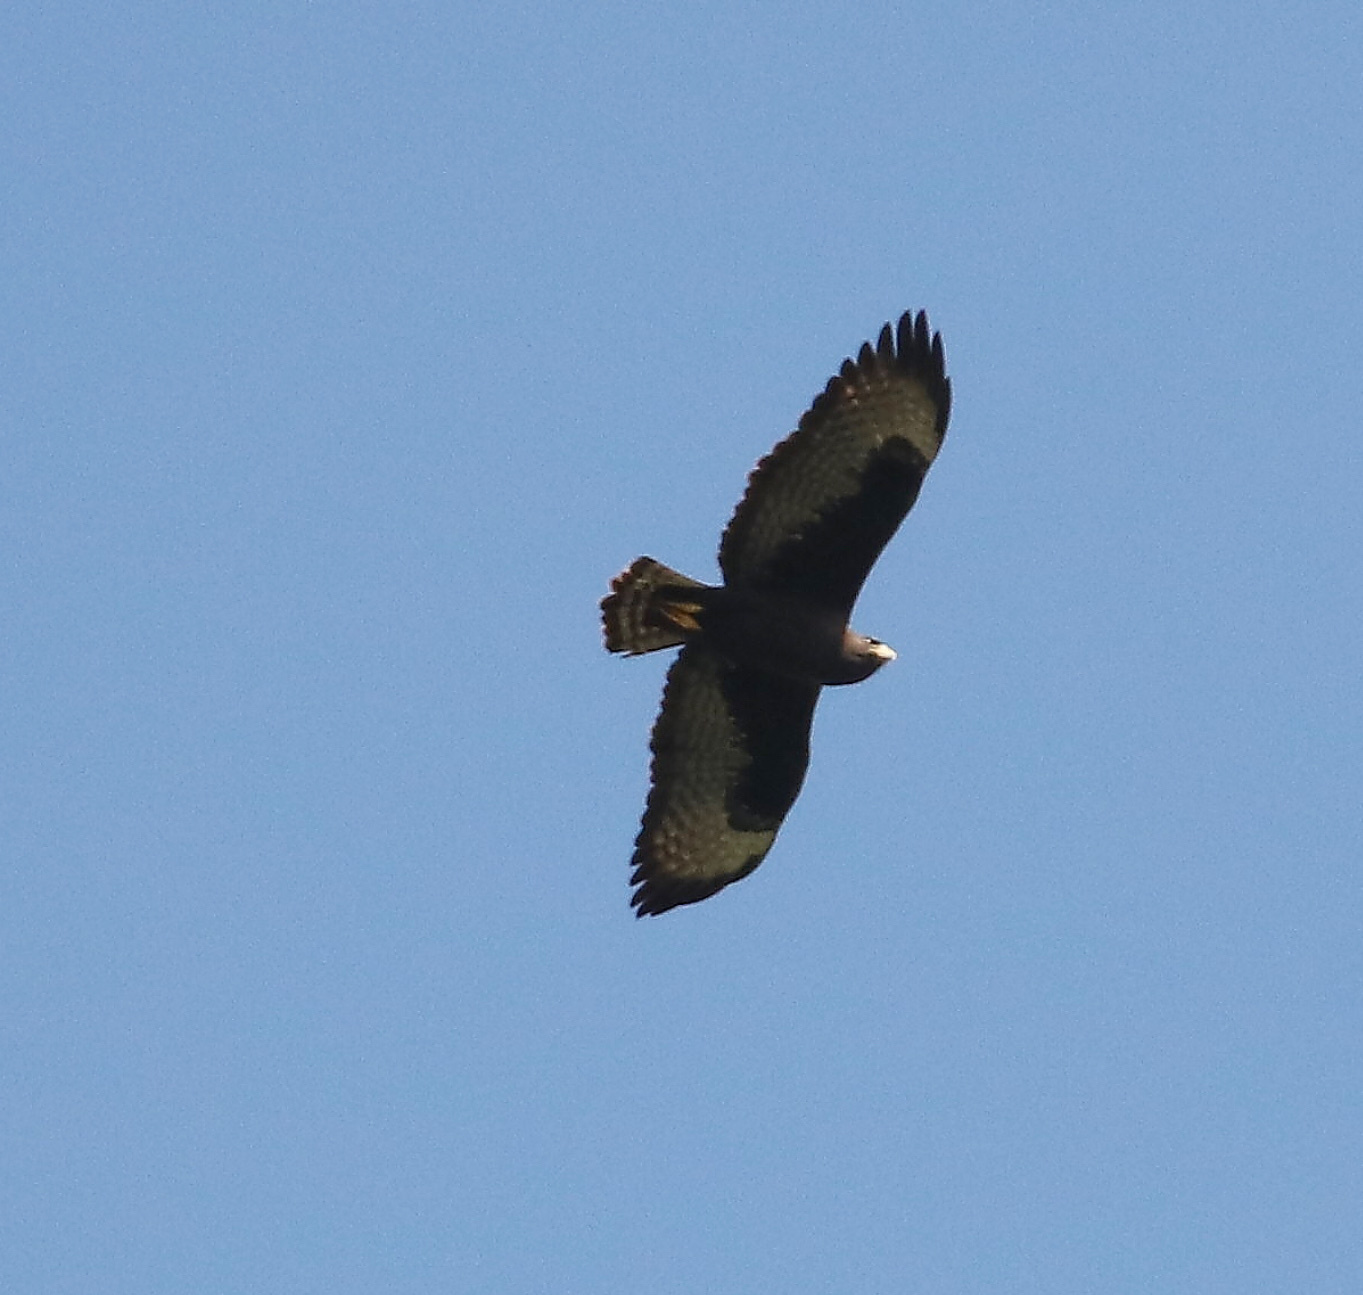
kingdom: Animalia
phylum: Chordata
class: Aves
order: Accipitriformes
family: Accipitridae
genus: Buteo
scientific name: Buteo brachyurus
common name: Short-tailed hawk
